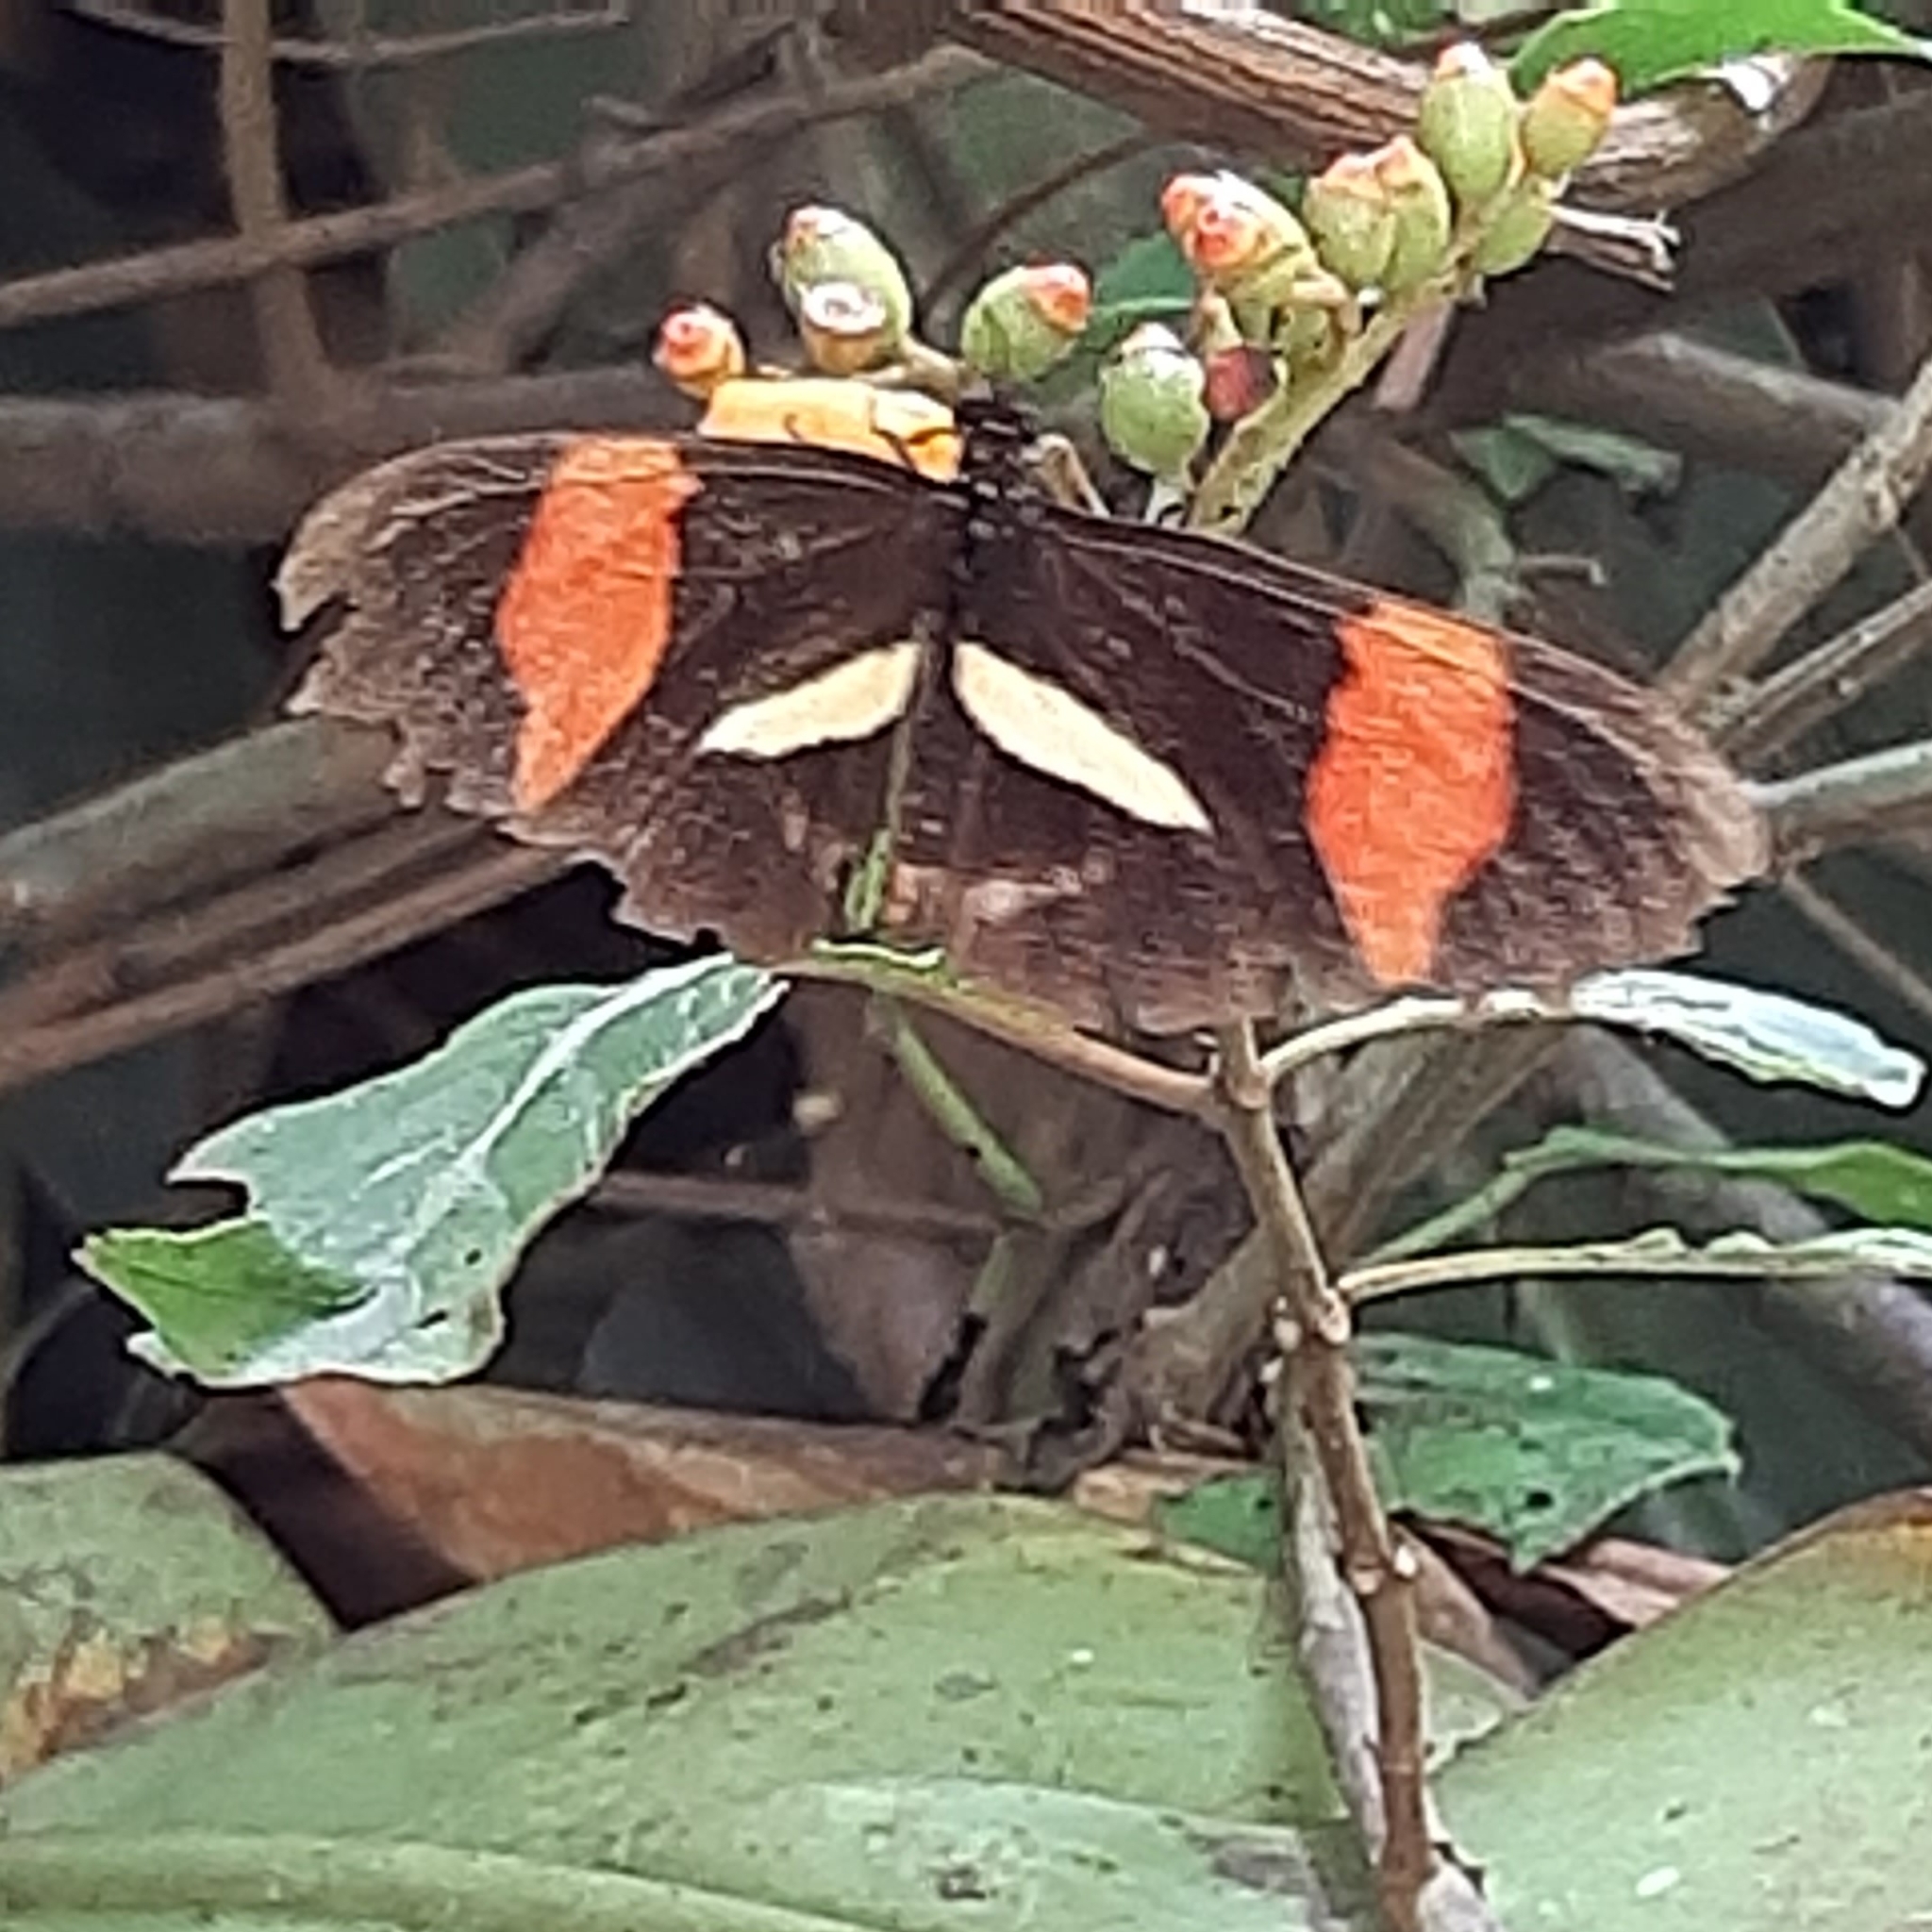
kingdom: Animalia
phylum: Arthropoda
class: Insecta
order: Lepidoptera
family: Nymphalidae
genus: Tirumala
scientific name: Tirumala petiverana
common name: Blue monarch
